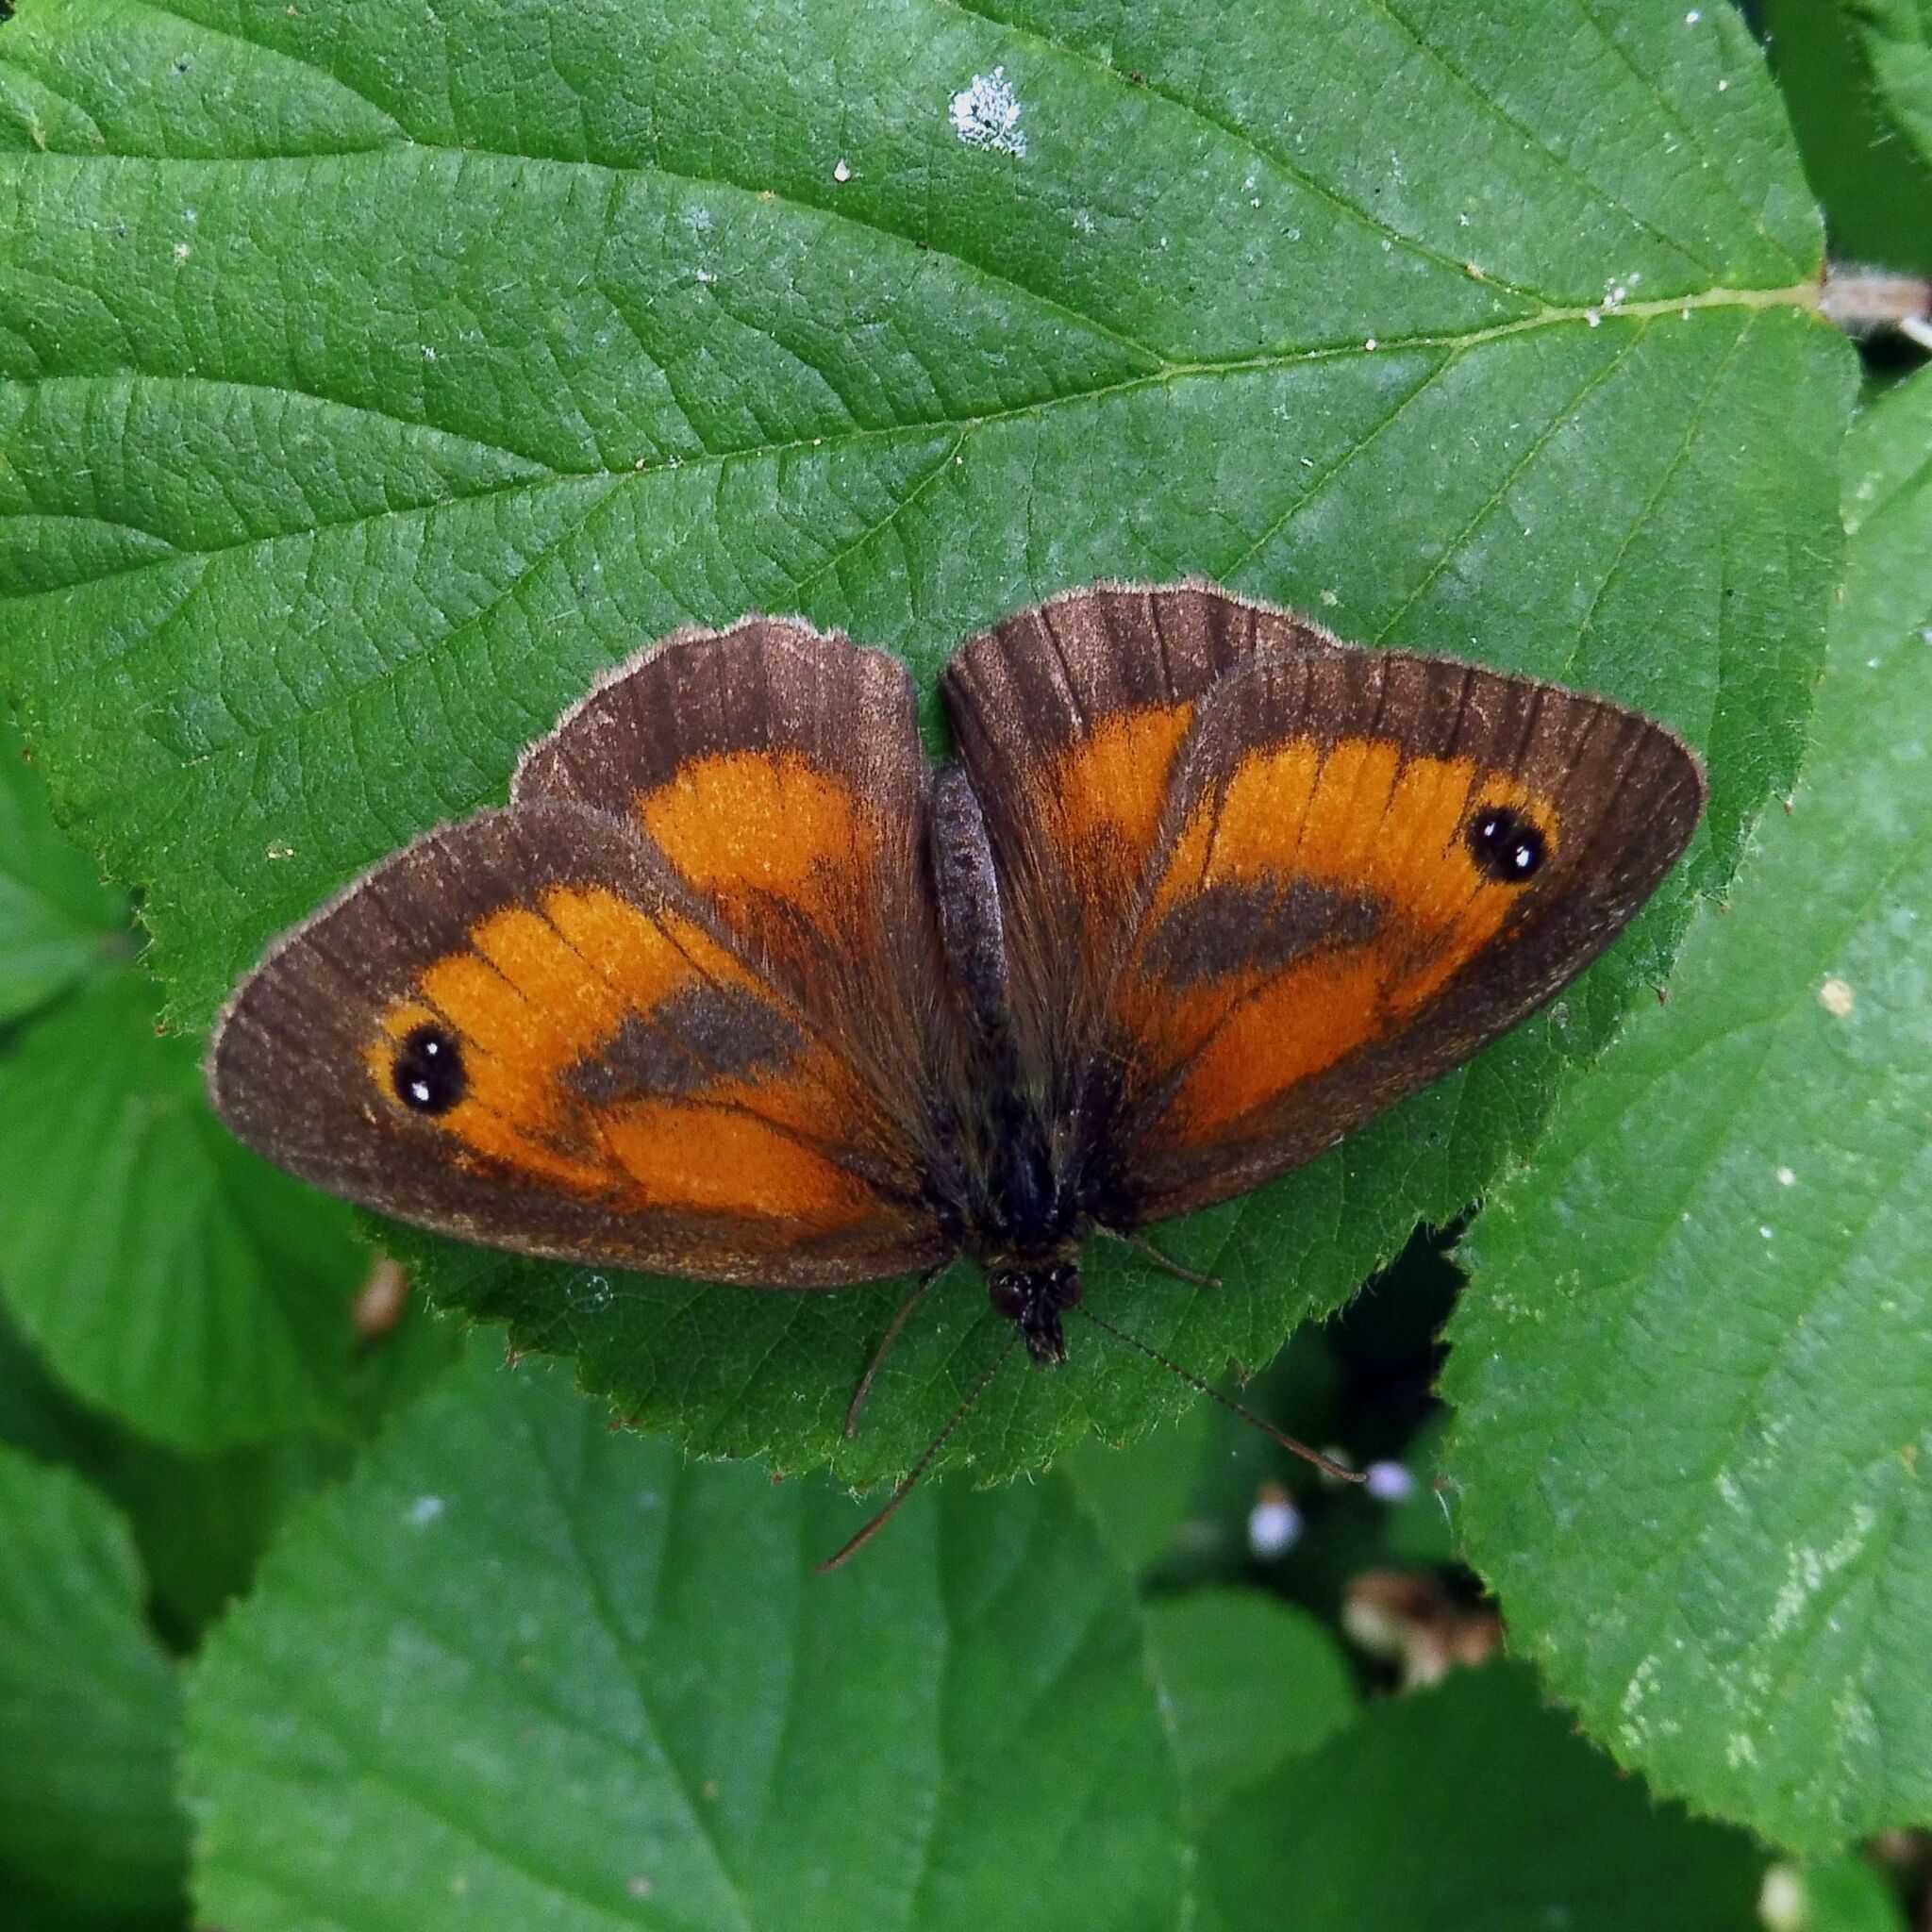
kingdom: Animalia
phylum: Arthropoda
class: Insecta
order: Lepidoptera
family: Nymphalidae
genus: Pyronia
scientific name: Pyronia tithonus
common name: Gatekeeper
